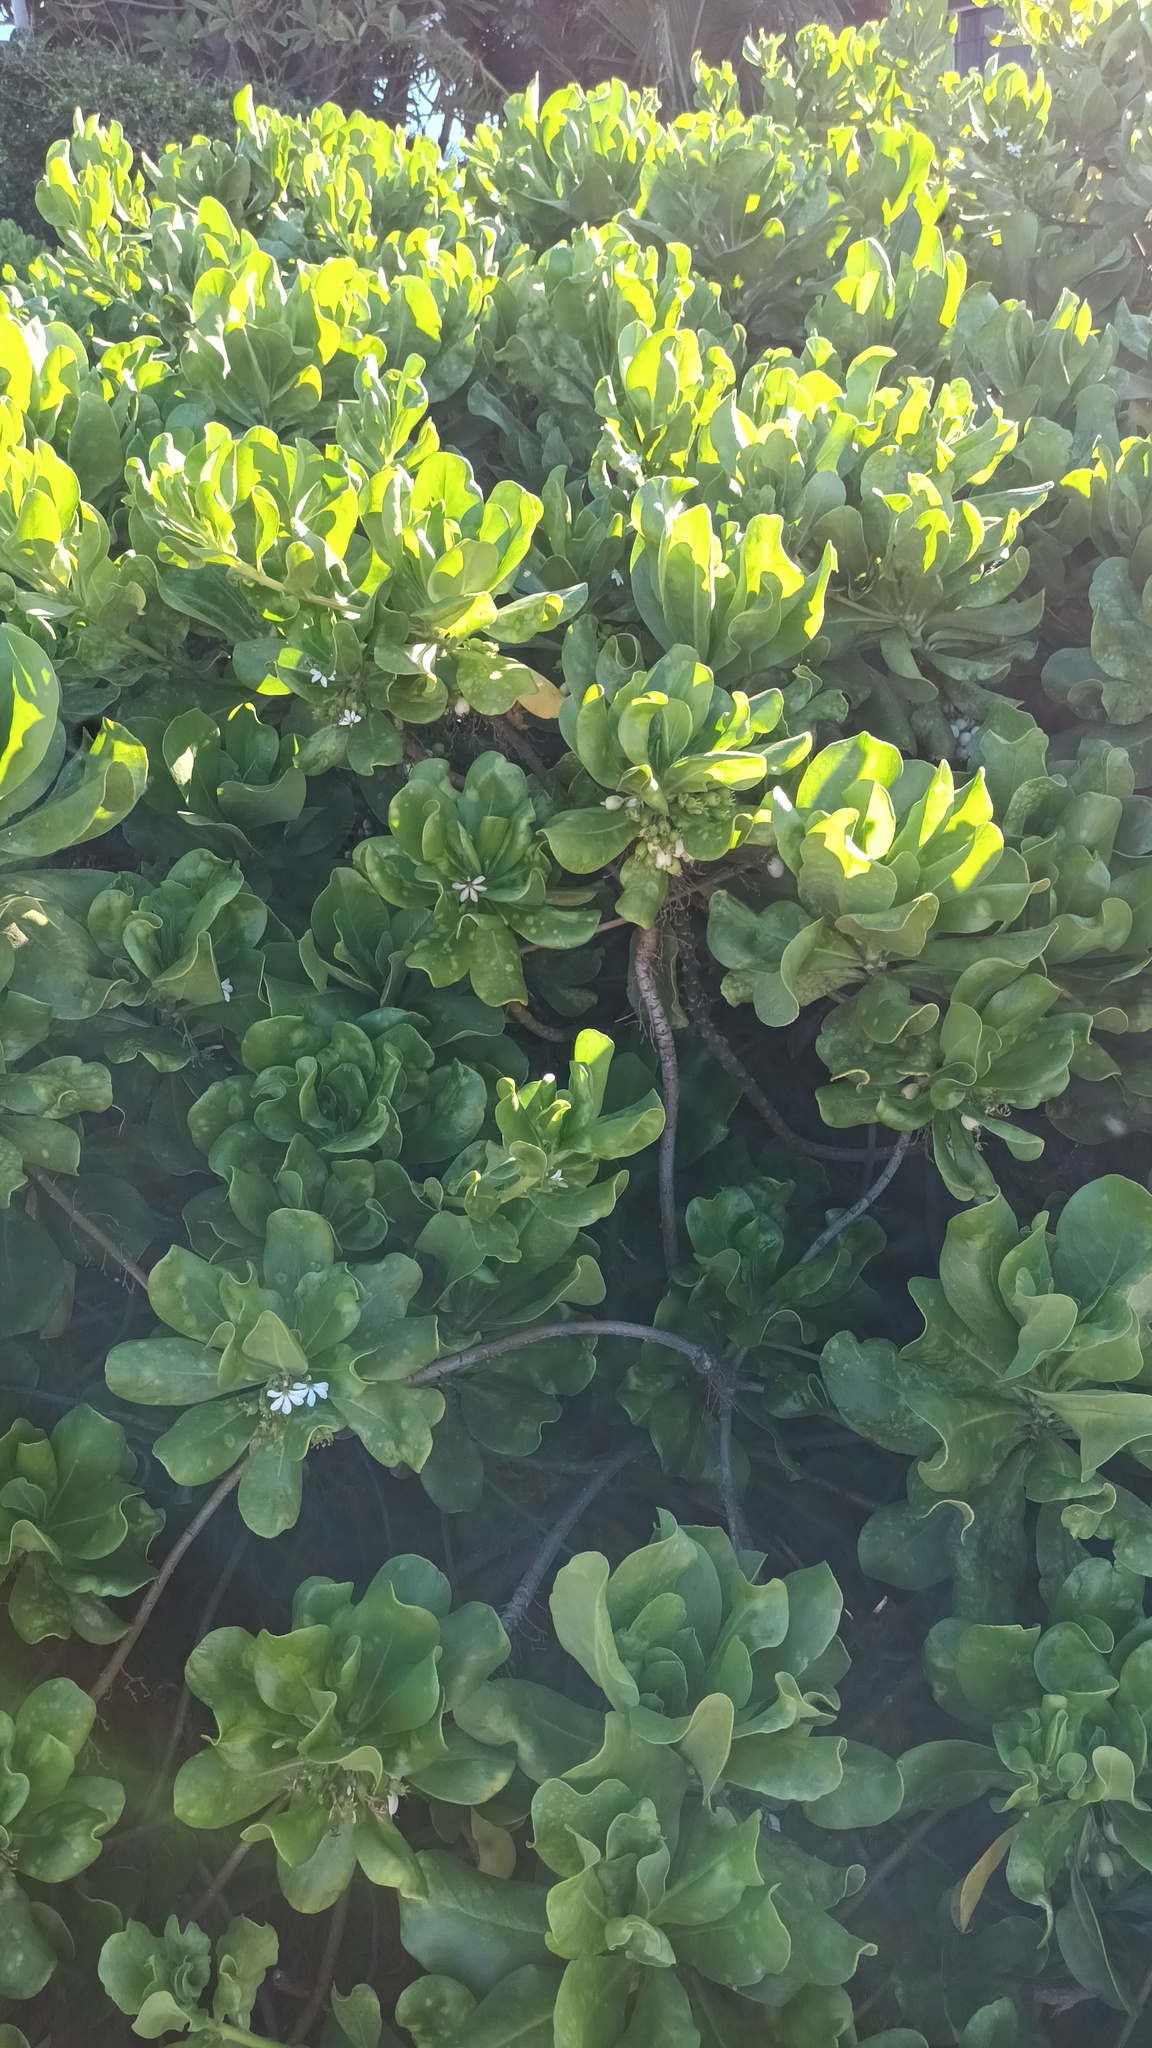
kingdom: Plantae
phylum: Tracheophyta
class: Magnoliopsida
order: Asterales
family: Goodeniaceae
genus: Scaevola
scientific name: Scaevola taccada
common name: Sea lettucetree
